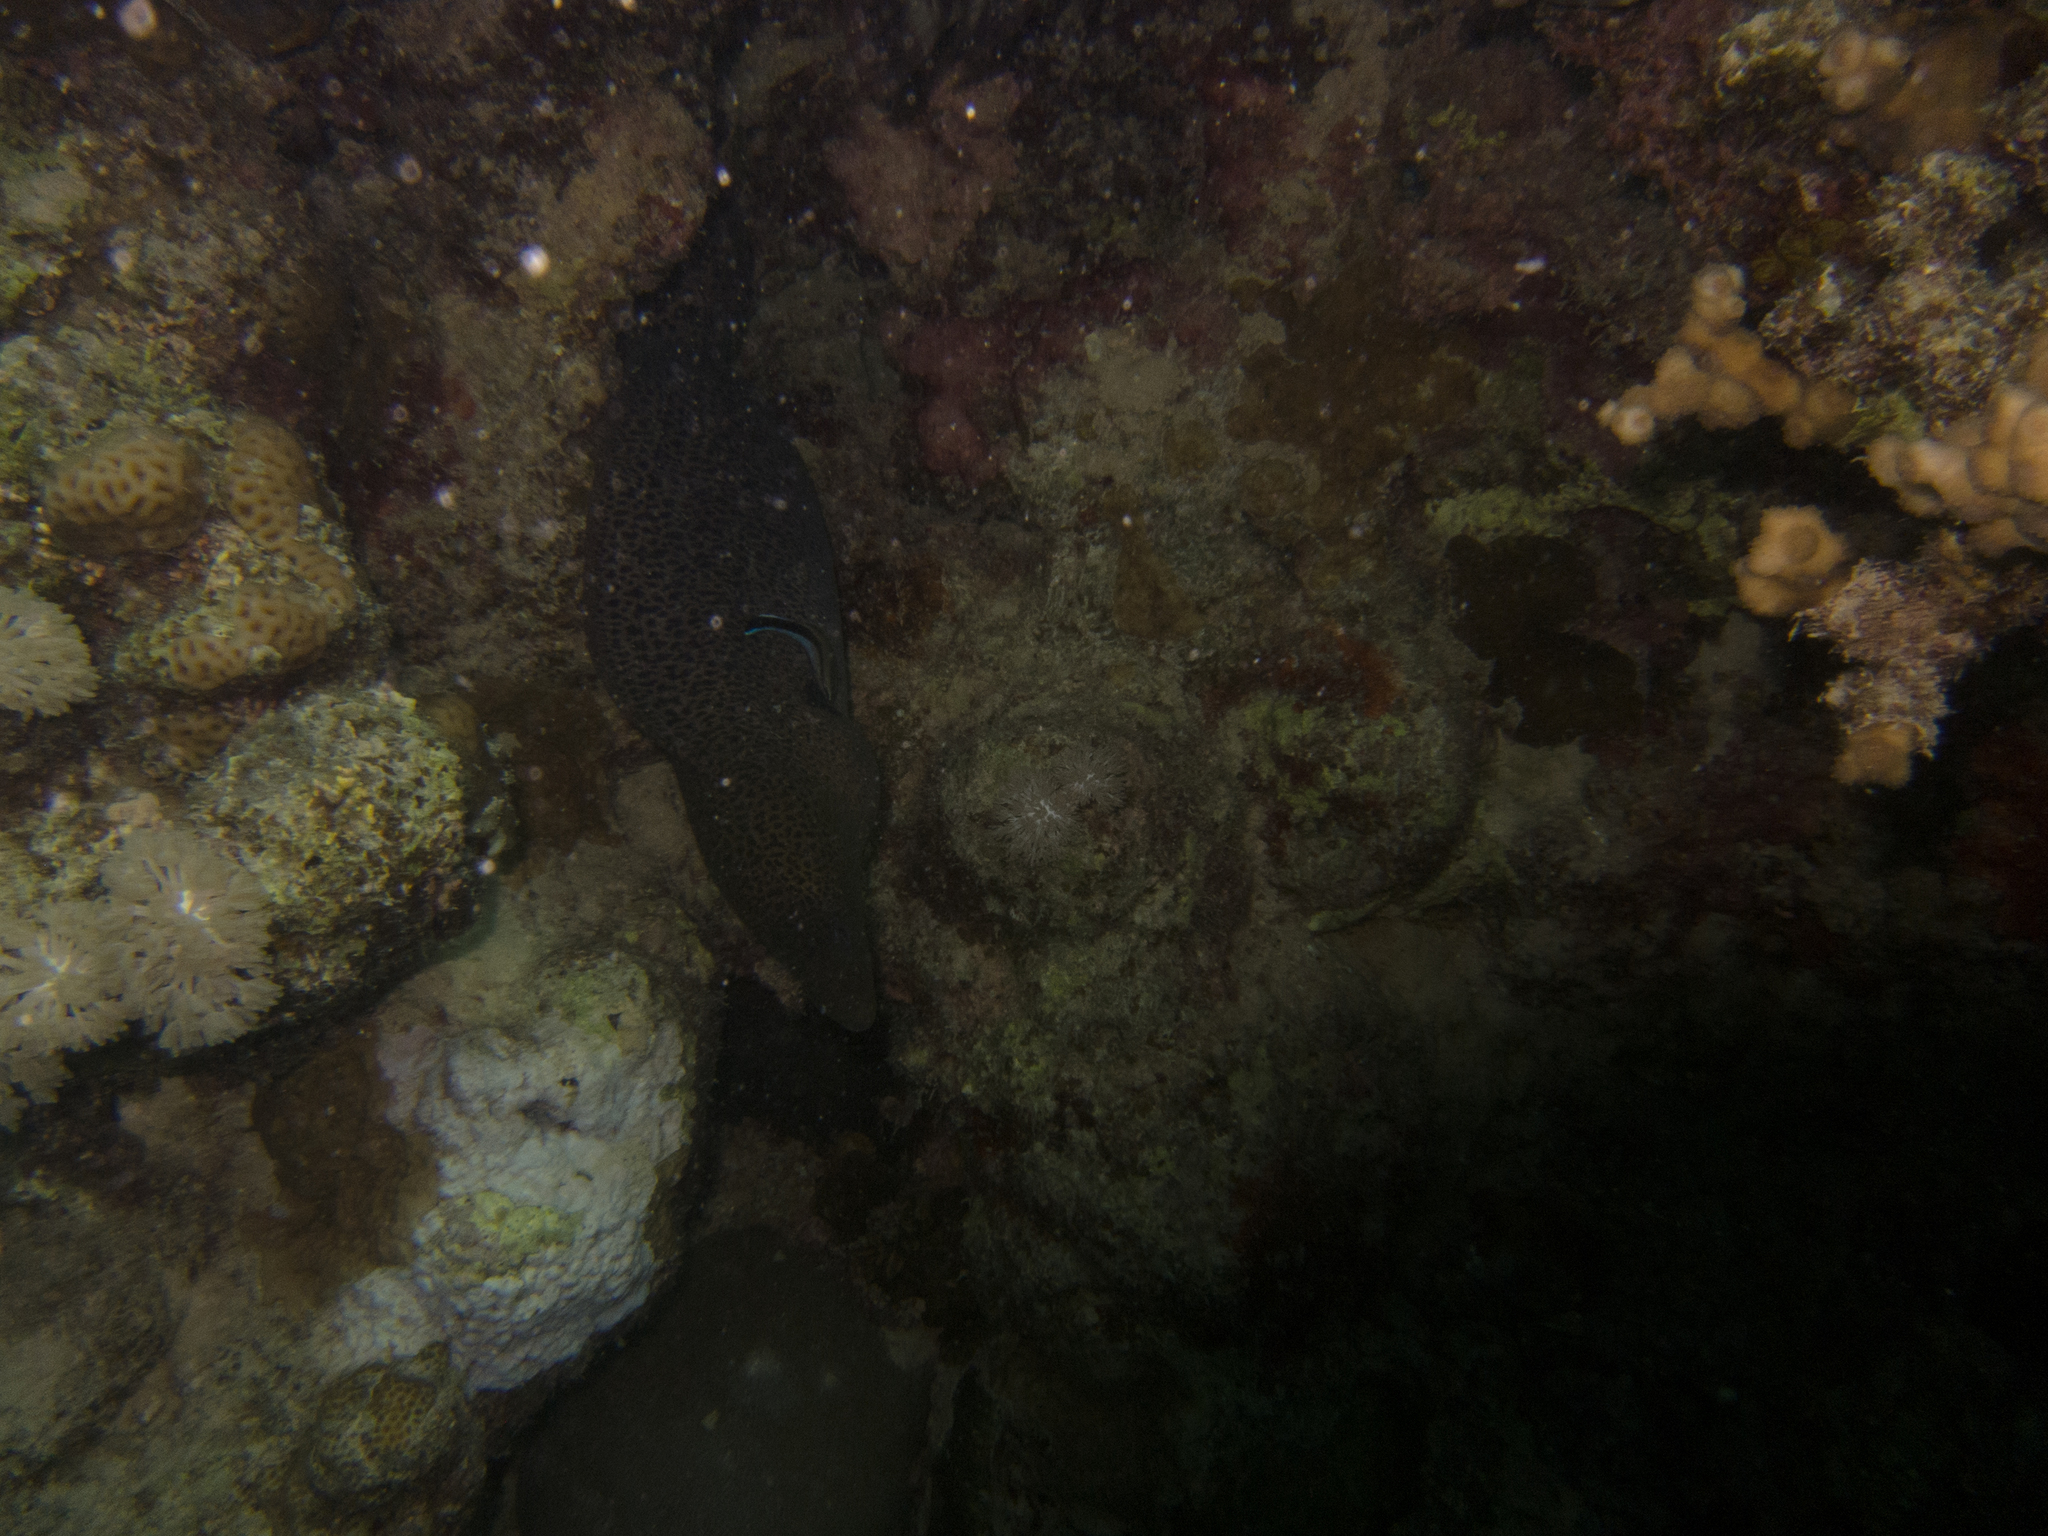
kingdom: Animalia
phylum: Chordata
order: Perciformes
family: Labridae
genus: Labroides
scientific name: Labroides dimidiatus
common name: Blue diesel wrasse
